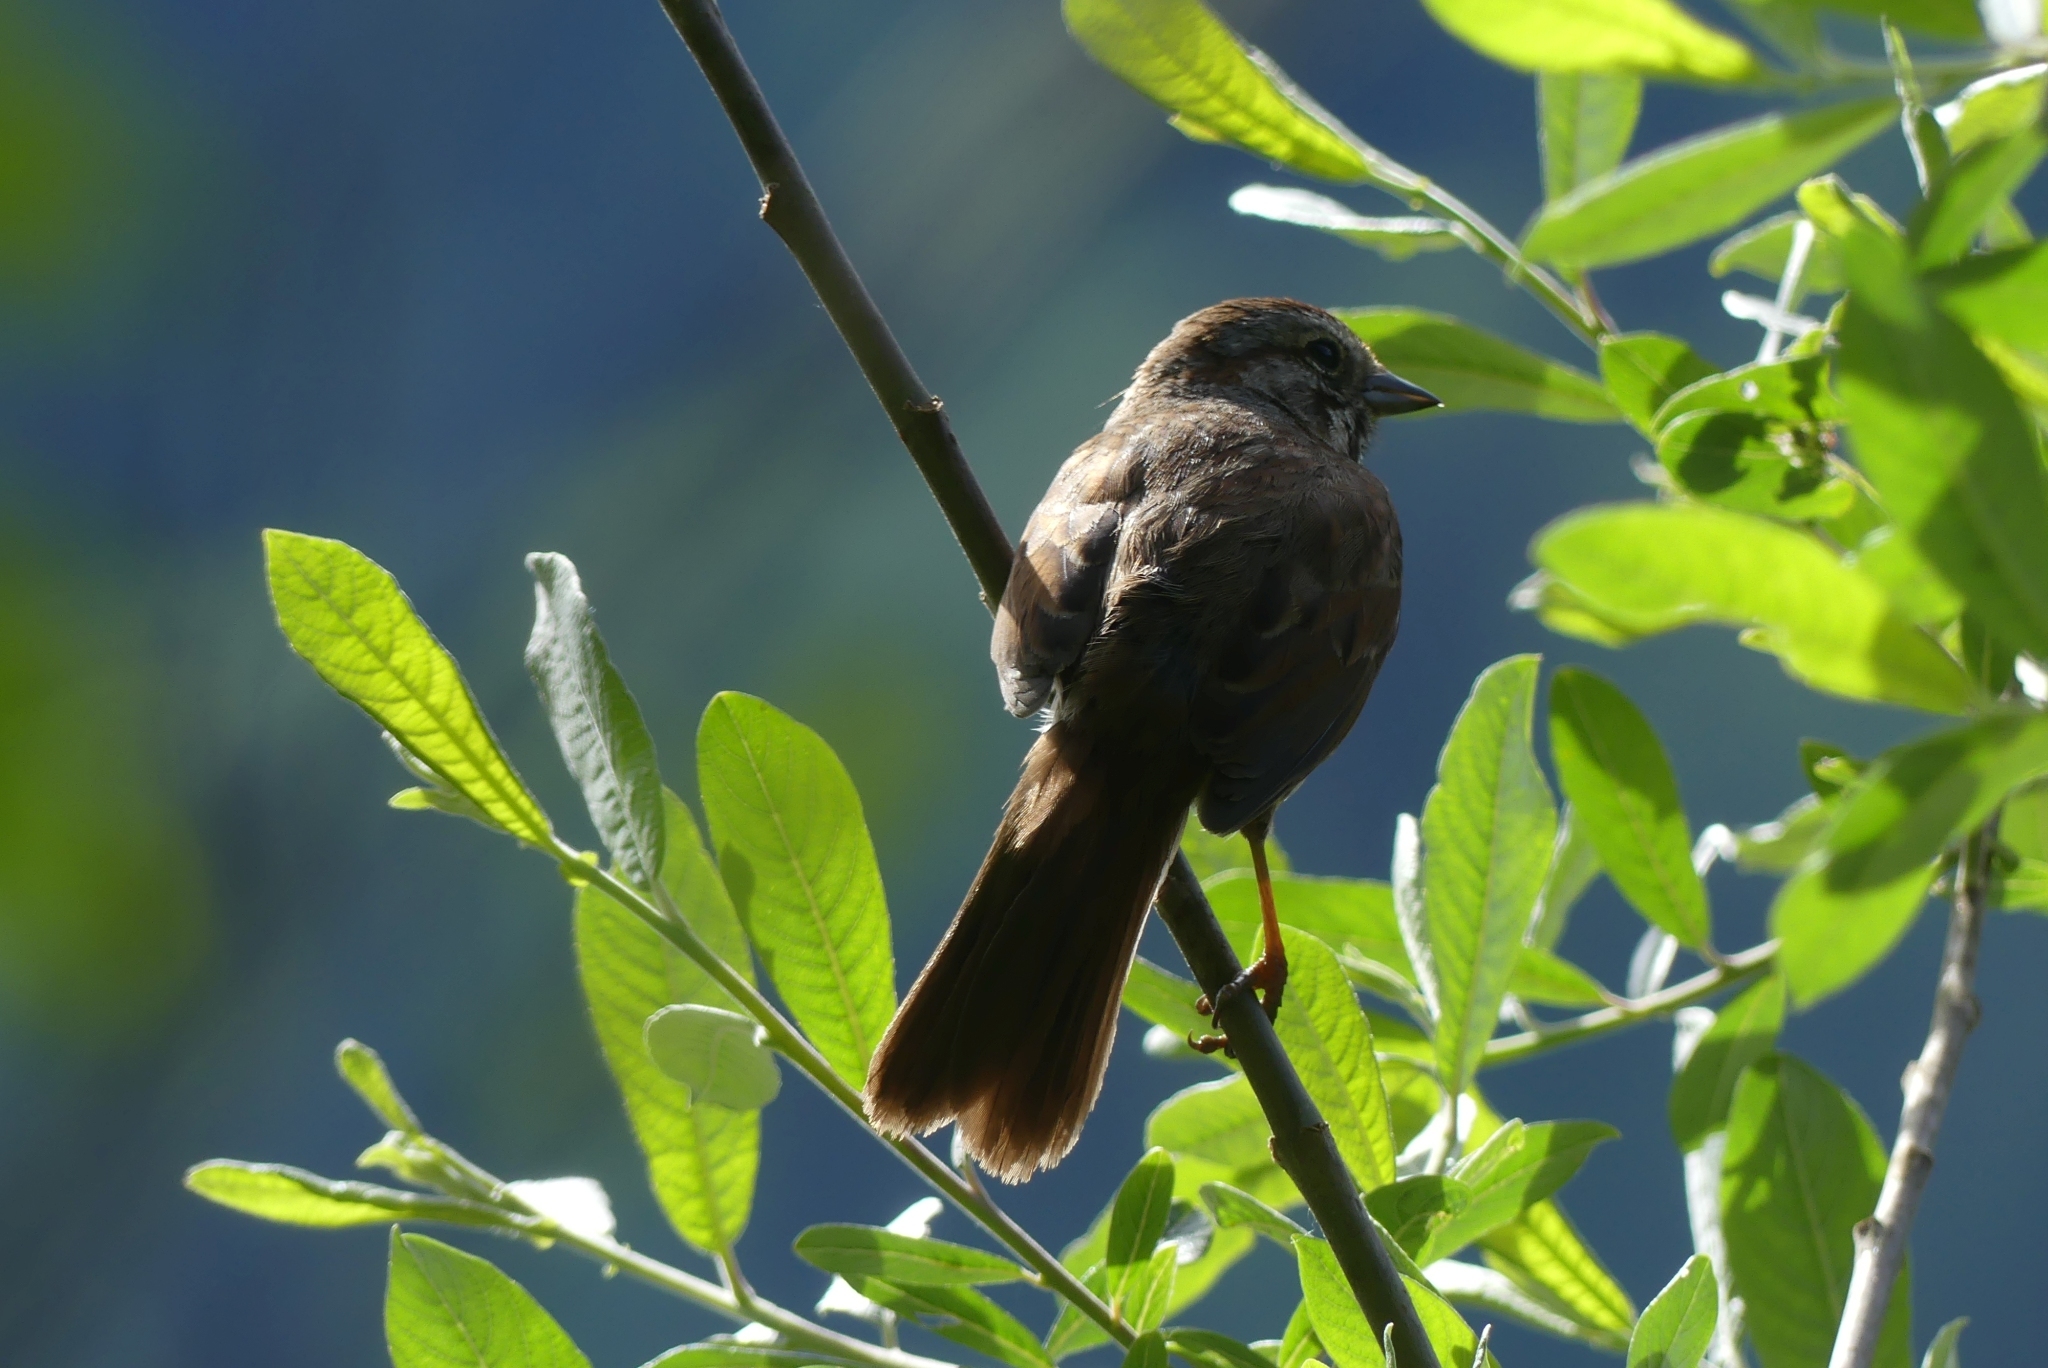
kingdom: Animalia
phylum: Chordata
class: Aves
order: Passeriformes
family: Passerellidae
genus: Melospiza
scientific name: Melospiza melodia
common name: Song sparrow
